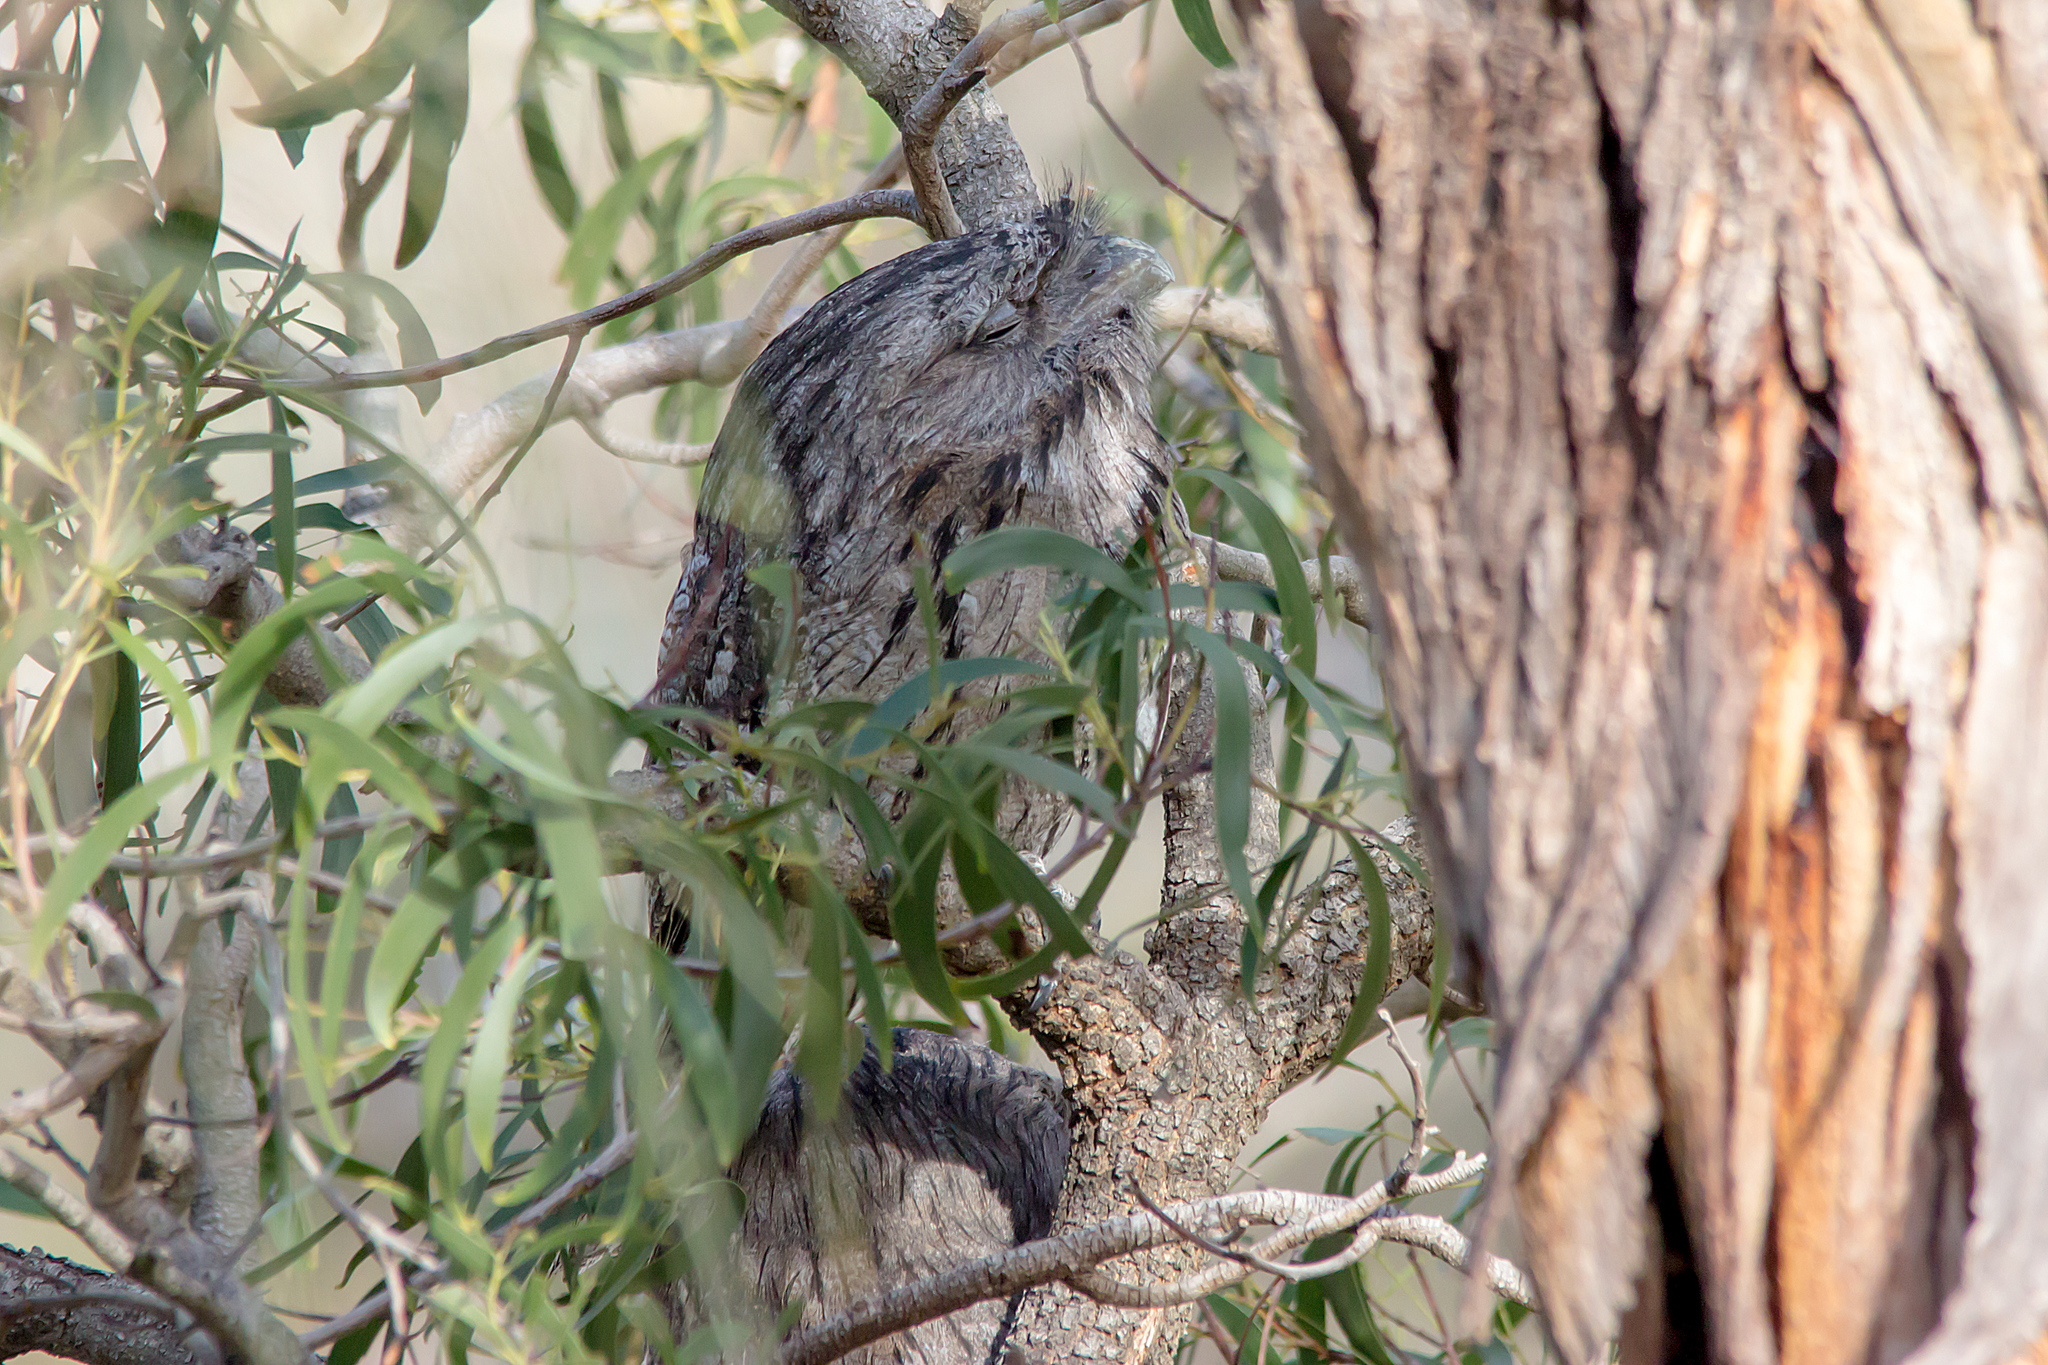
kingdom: Animalia
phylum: Chordata
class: Aves
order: Caprimulgiformes
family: Podargidae
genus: Podargus
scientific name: Podargus strigoides
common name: Tawny frogmouth
